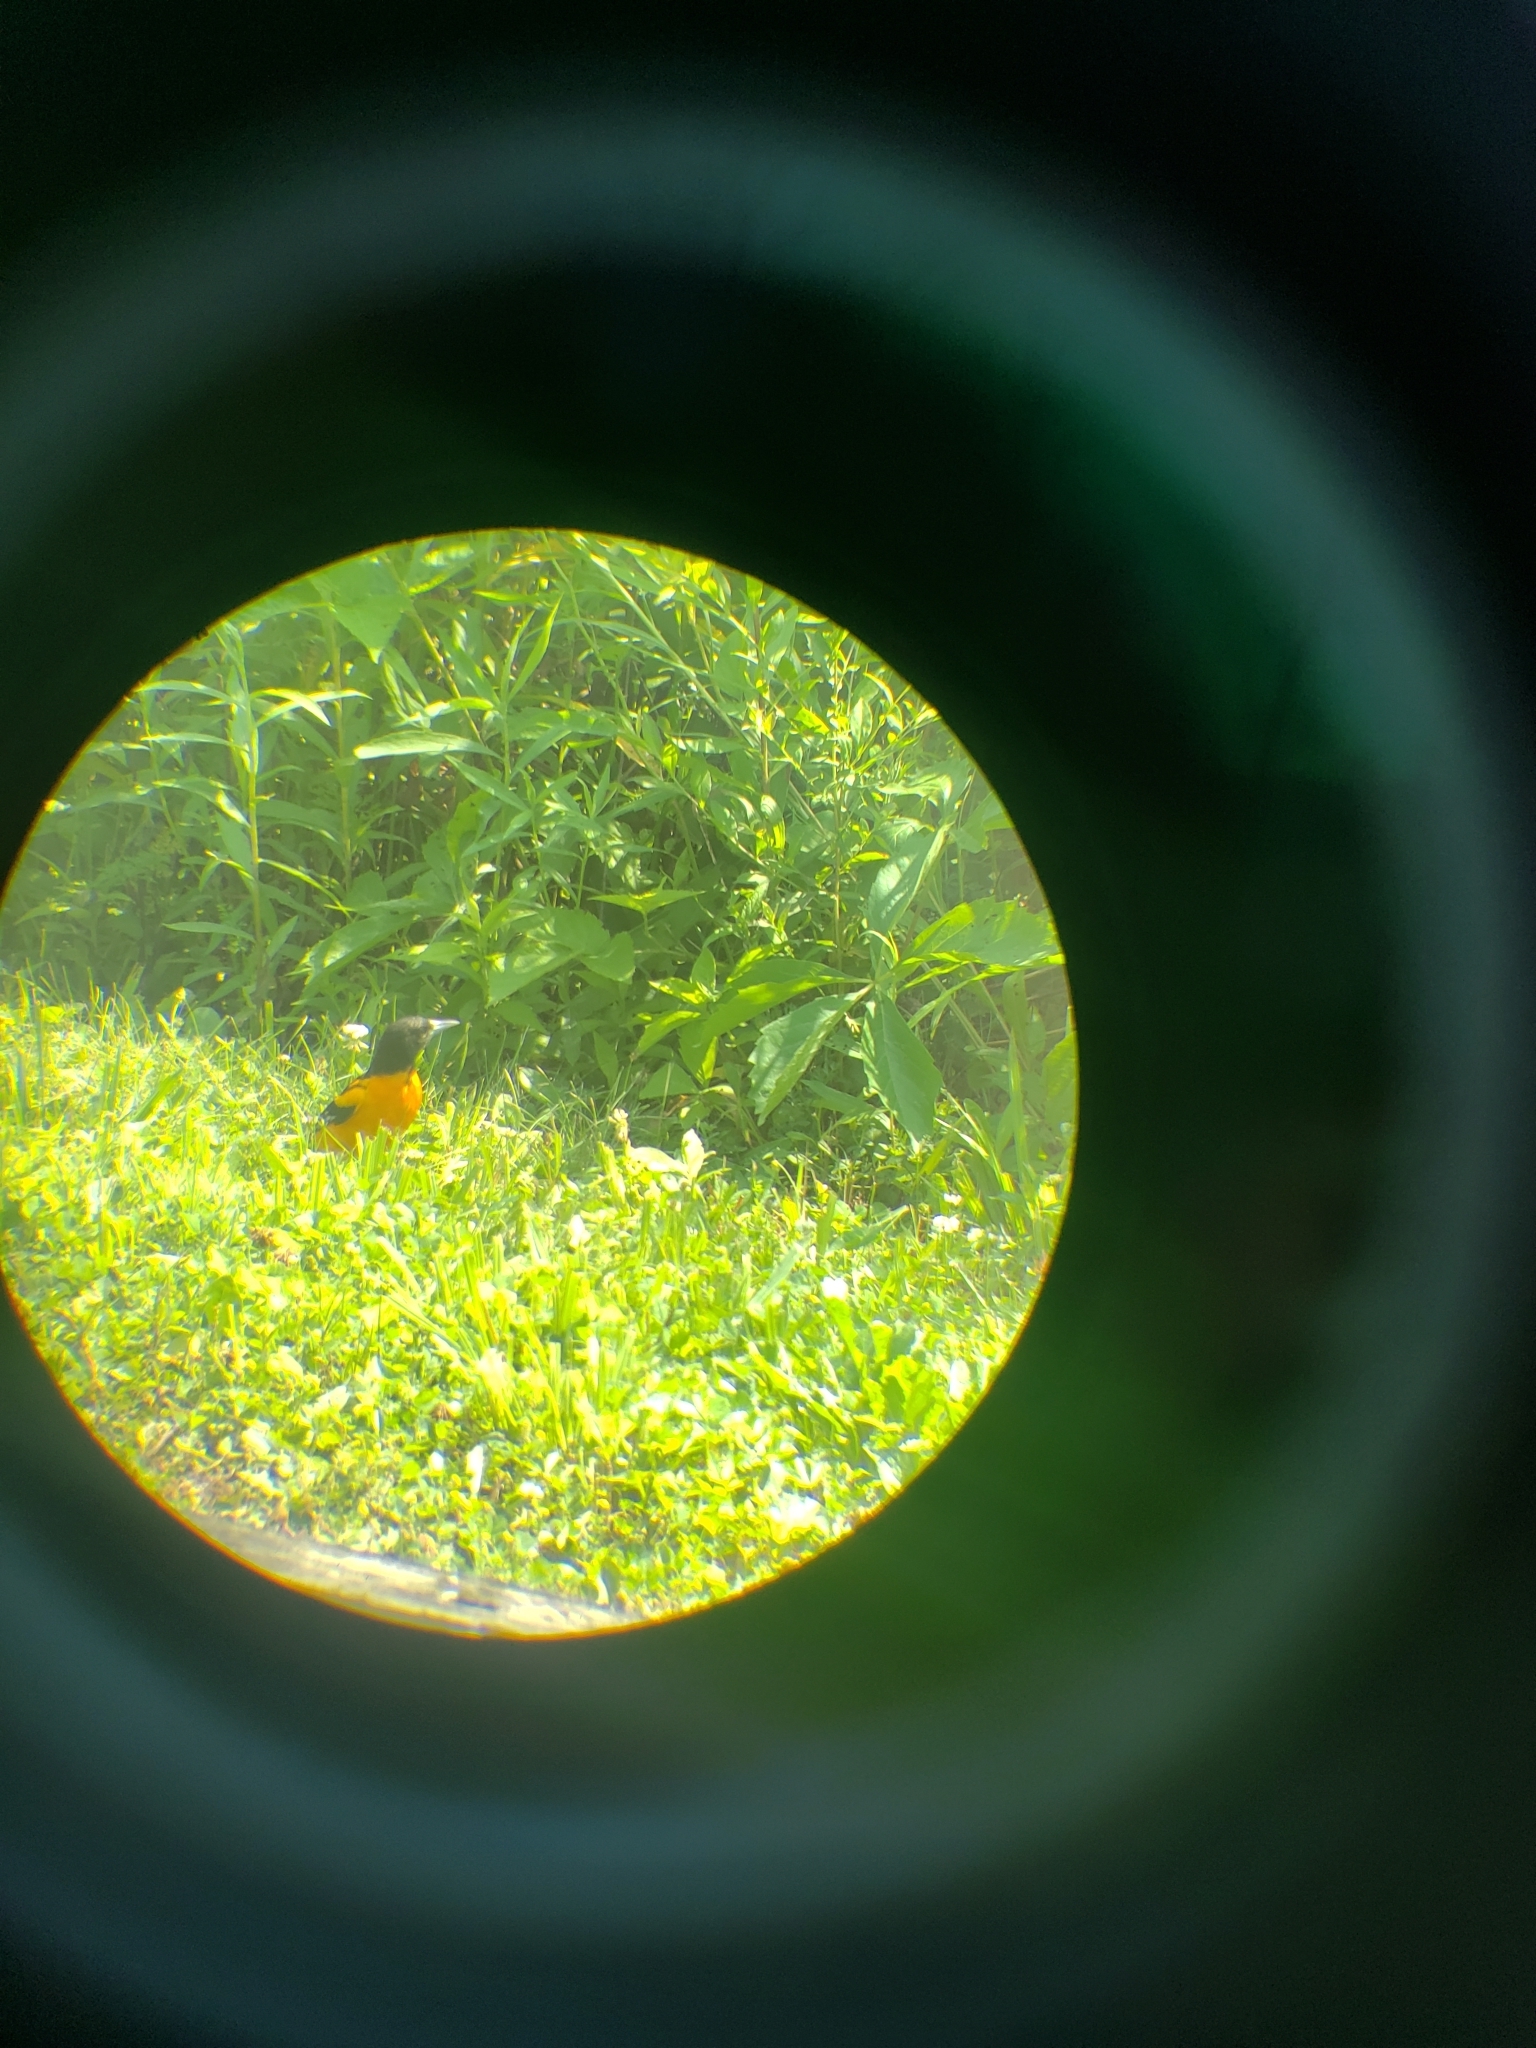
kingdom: Animalia
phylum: Chordata
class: Aves
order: Passeriformes
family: Icteridae
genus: Icterus
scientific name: Icterus galbula
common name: Baltimore oriole
